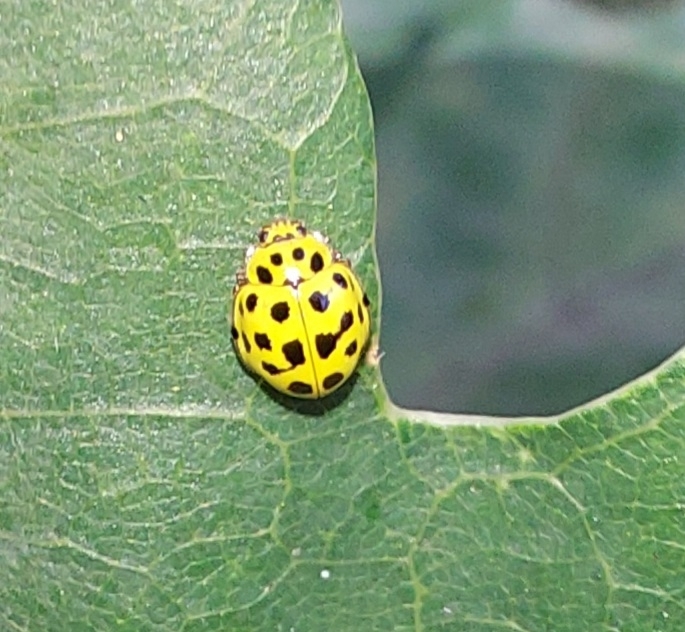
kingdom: Animalia
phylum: Arthropoda
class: Insecta
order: Coleoptera
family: Coccinellidae
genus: Psyllobora
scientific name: Psyllobora vigintiduopunctata
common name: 22-spot ladybird
